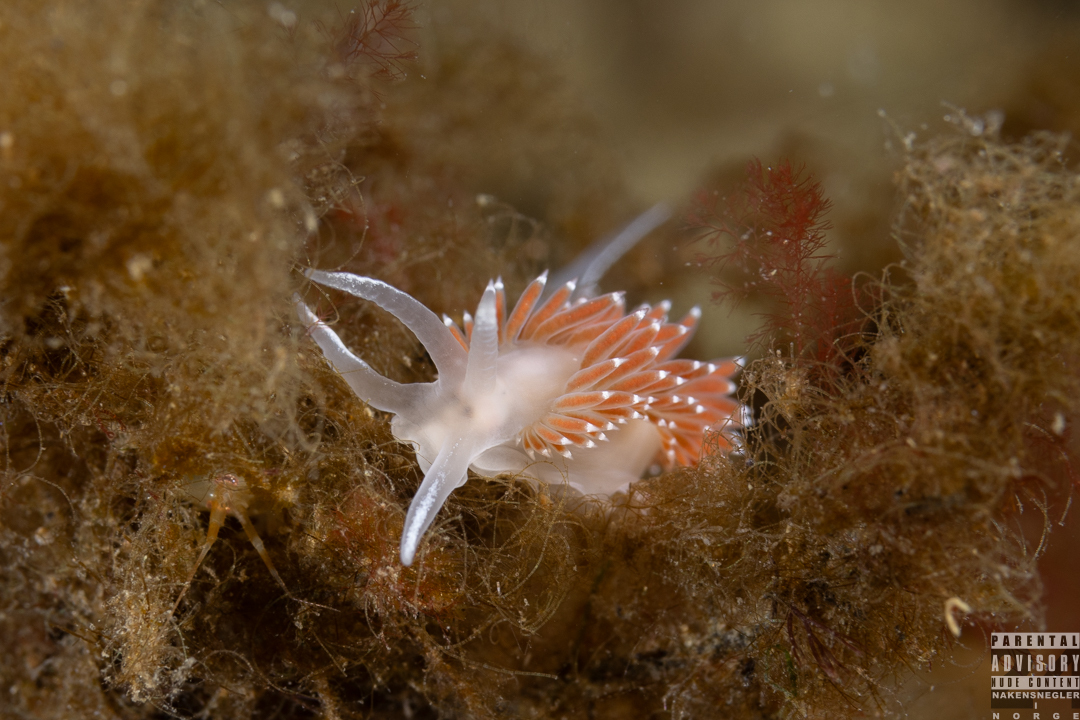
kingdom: Animalia
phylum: Mollusca
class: Gastropoda
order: Nudibranchia
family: Coryphellidae
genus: Coryphella
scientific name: Coryphella verrucosa
